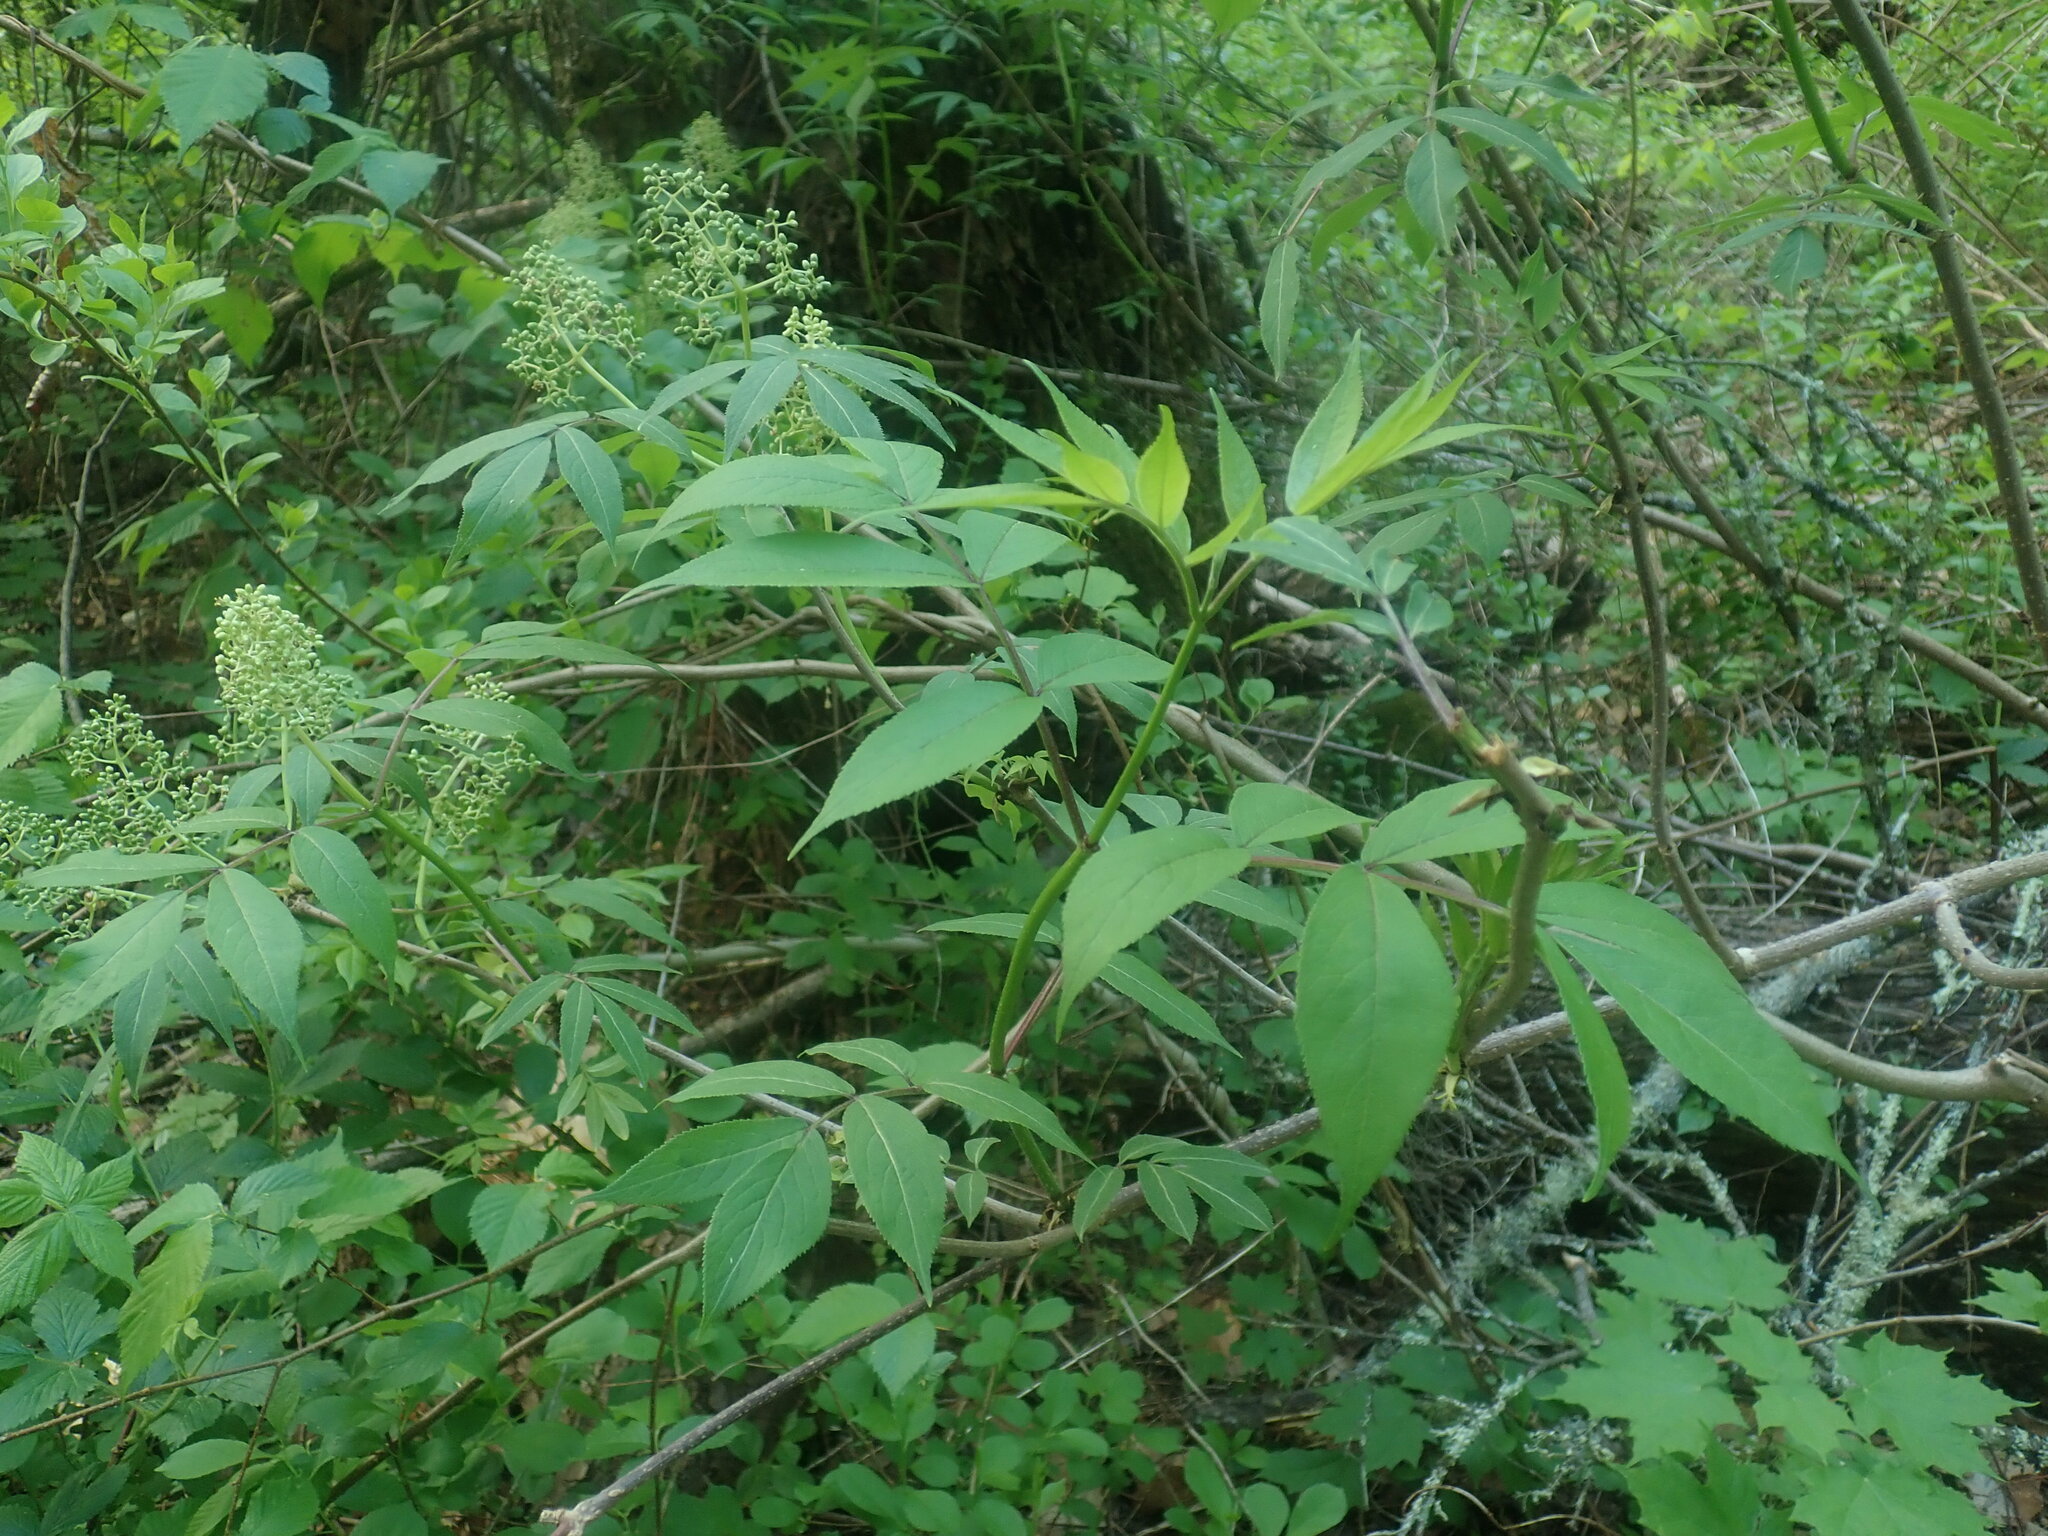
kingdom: Plantae
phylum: Tracheophyta
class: Magnoliopsida
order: Dipsacales
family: Viburnaceae
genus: Sambucus
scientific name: Sambucus racemosa
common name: Red-berried elder
